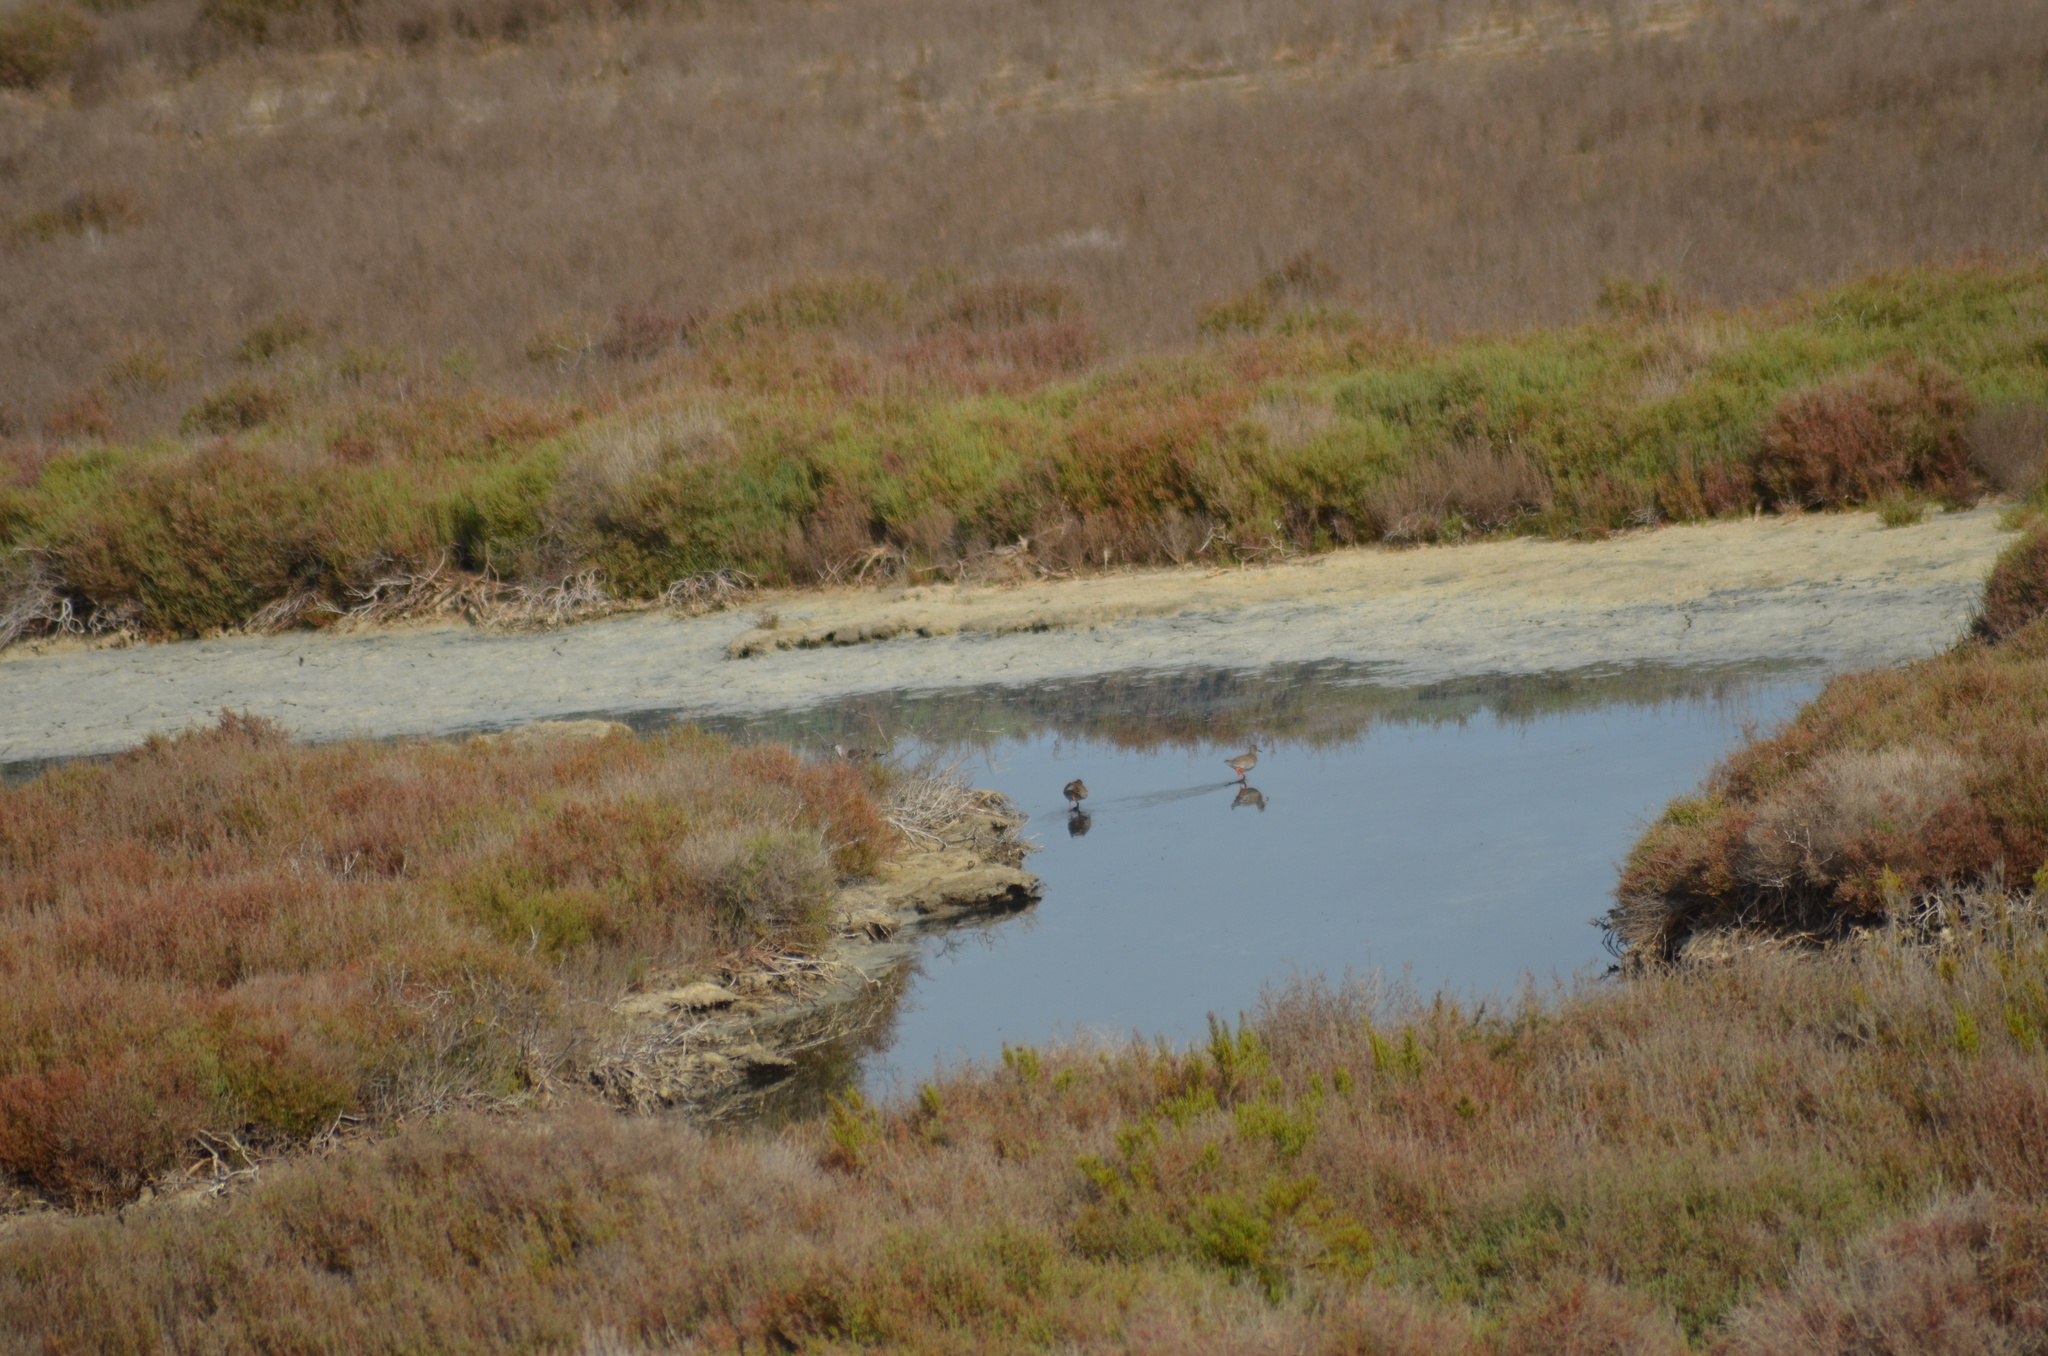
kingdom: Animalia
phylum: Chordata
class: Aves
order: Charadriiformes
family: Scolopacidae
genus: Tringa
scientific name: Tringa totanus
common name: Common redshank
